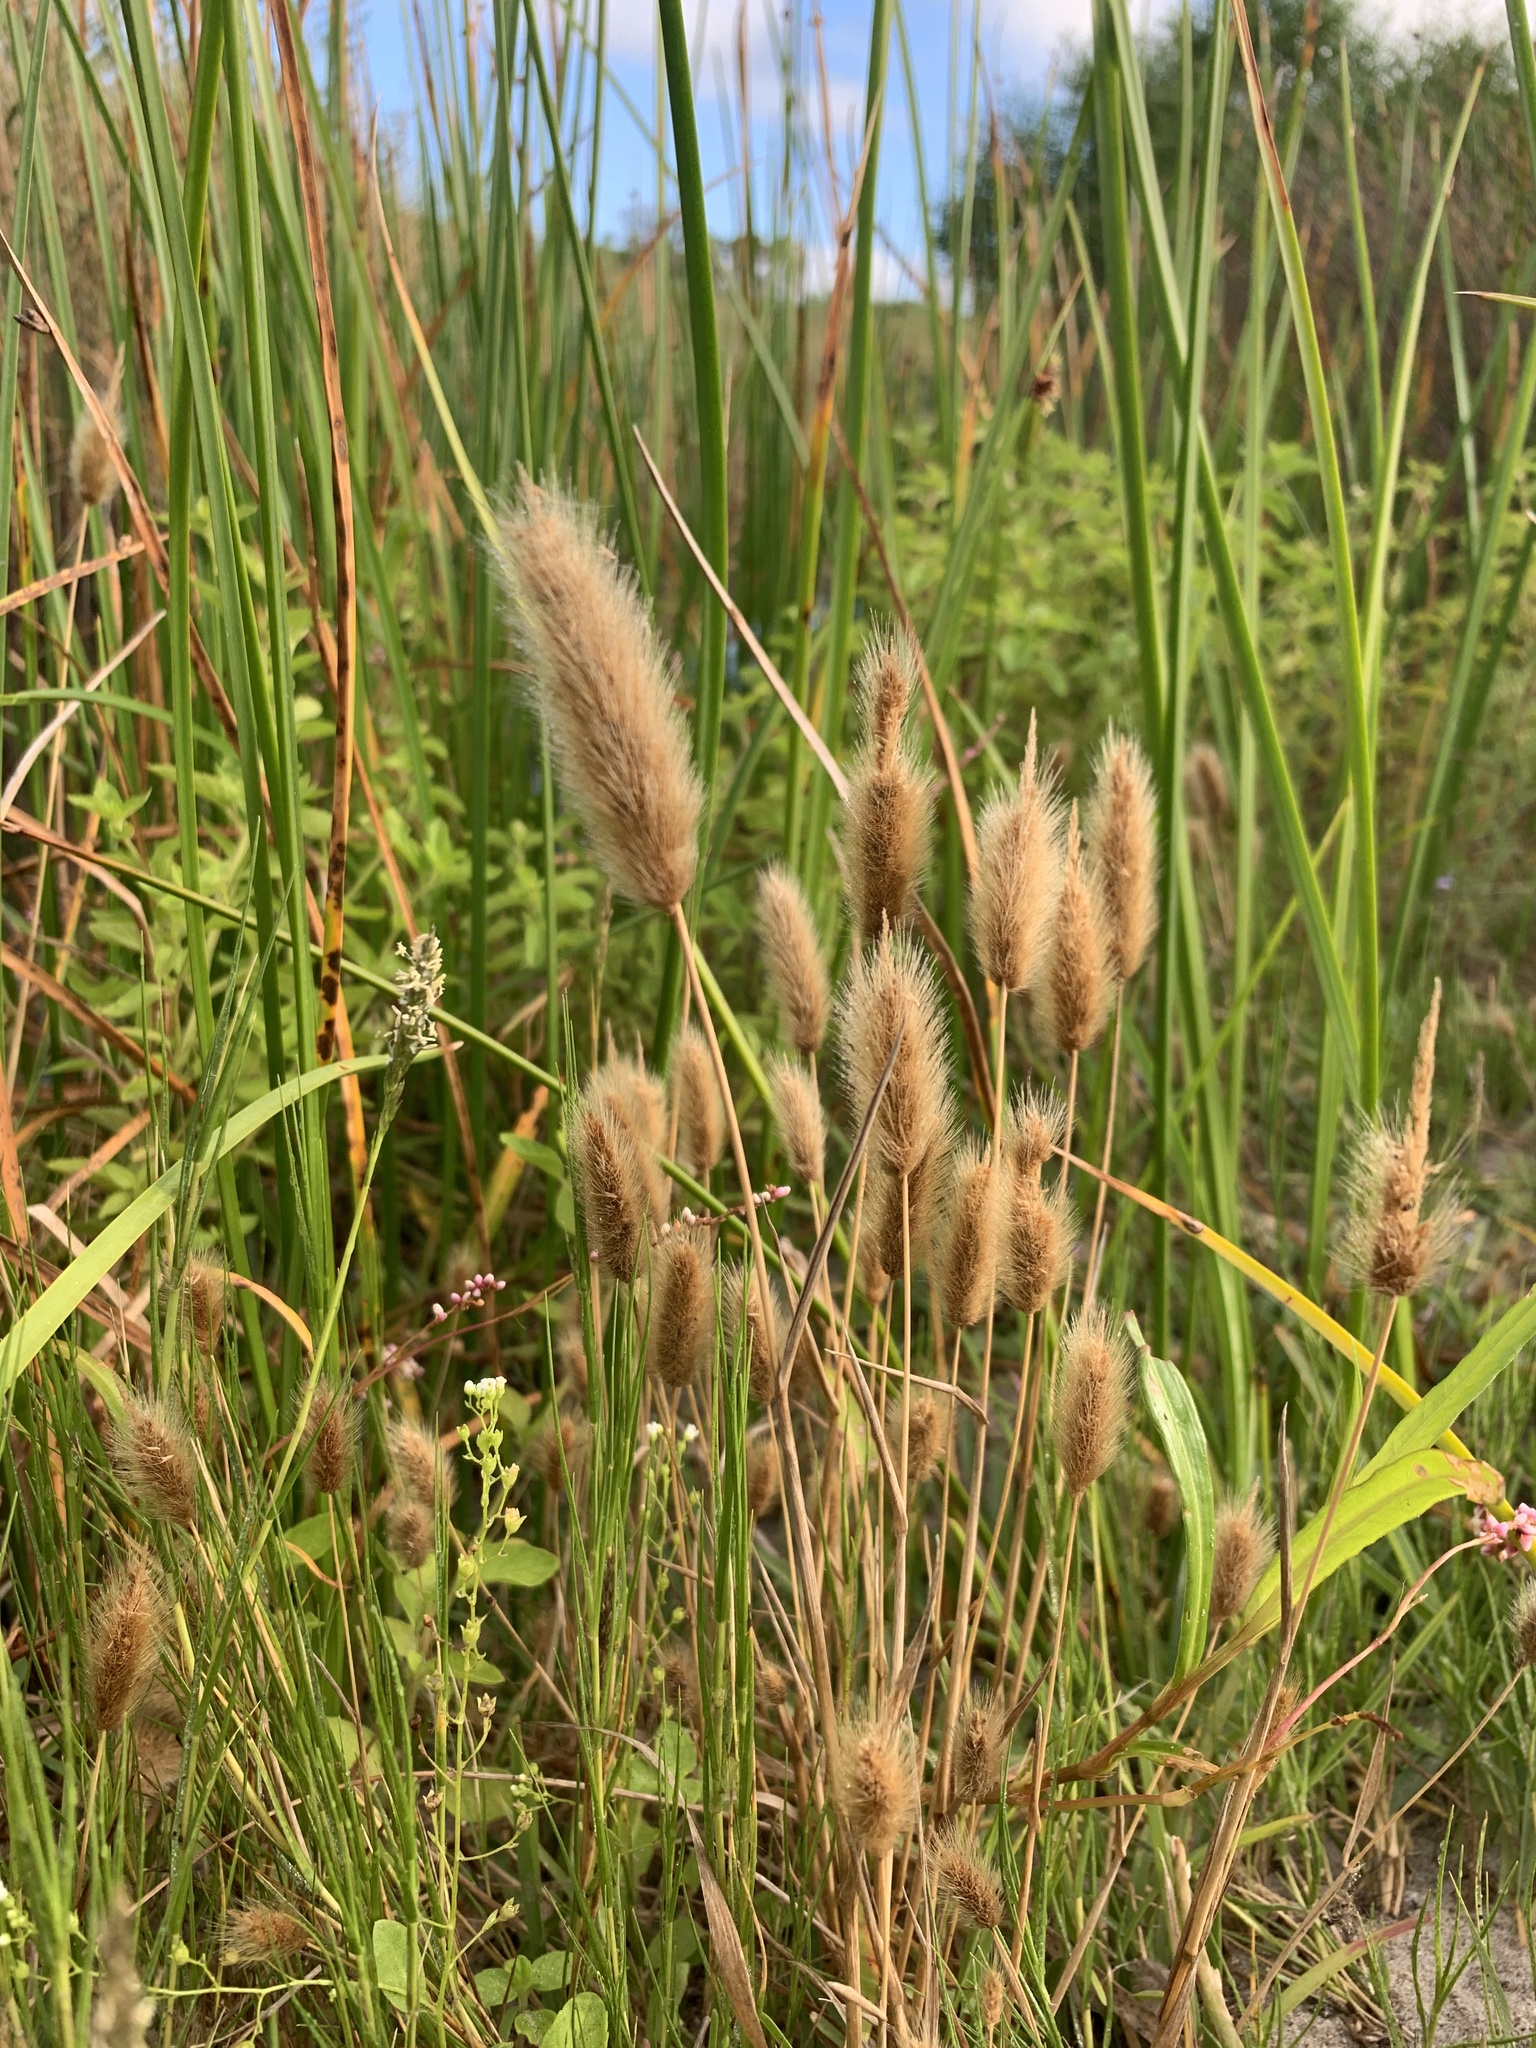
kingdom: Plantae
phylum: Tracheophyta
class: Liliopsida
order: Poales
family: Poaceae
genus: Polypogon
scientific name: Polypogon monspeliensis
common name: Annual rabbitsfoot grass
